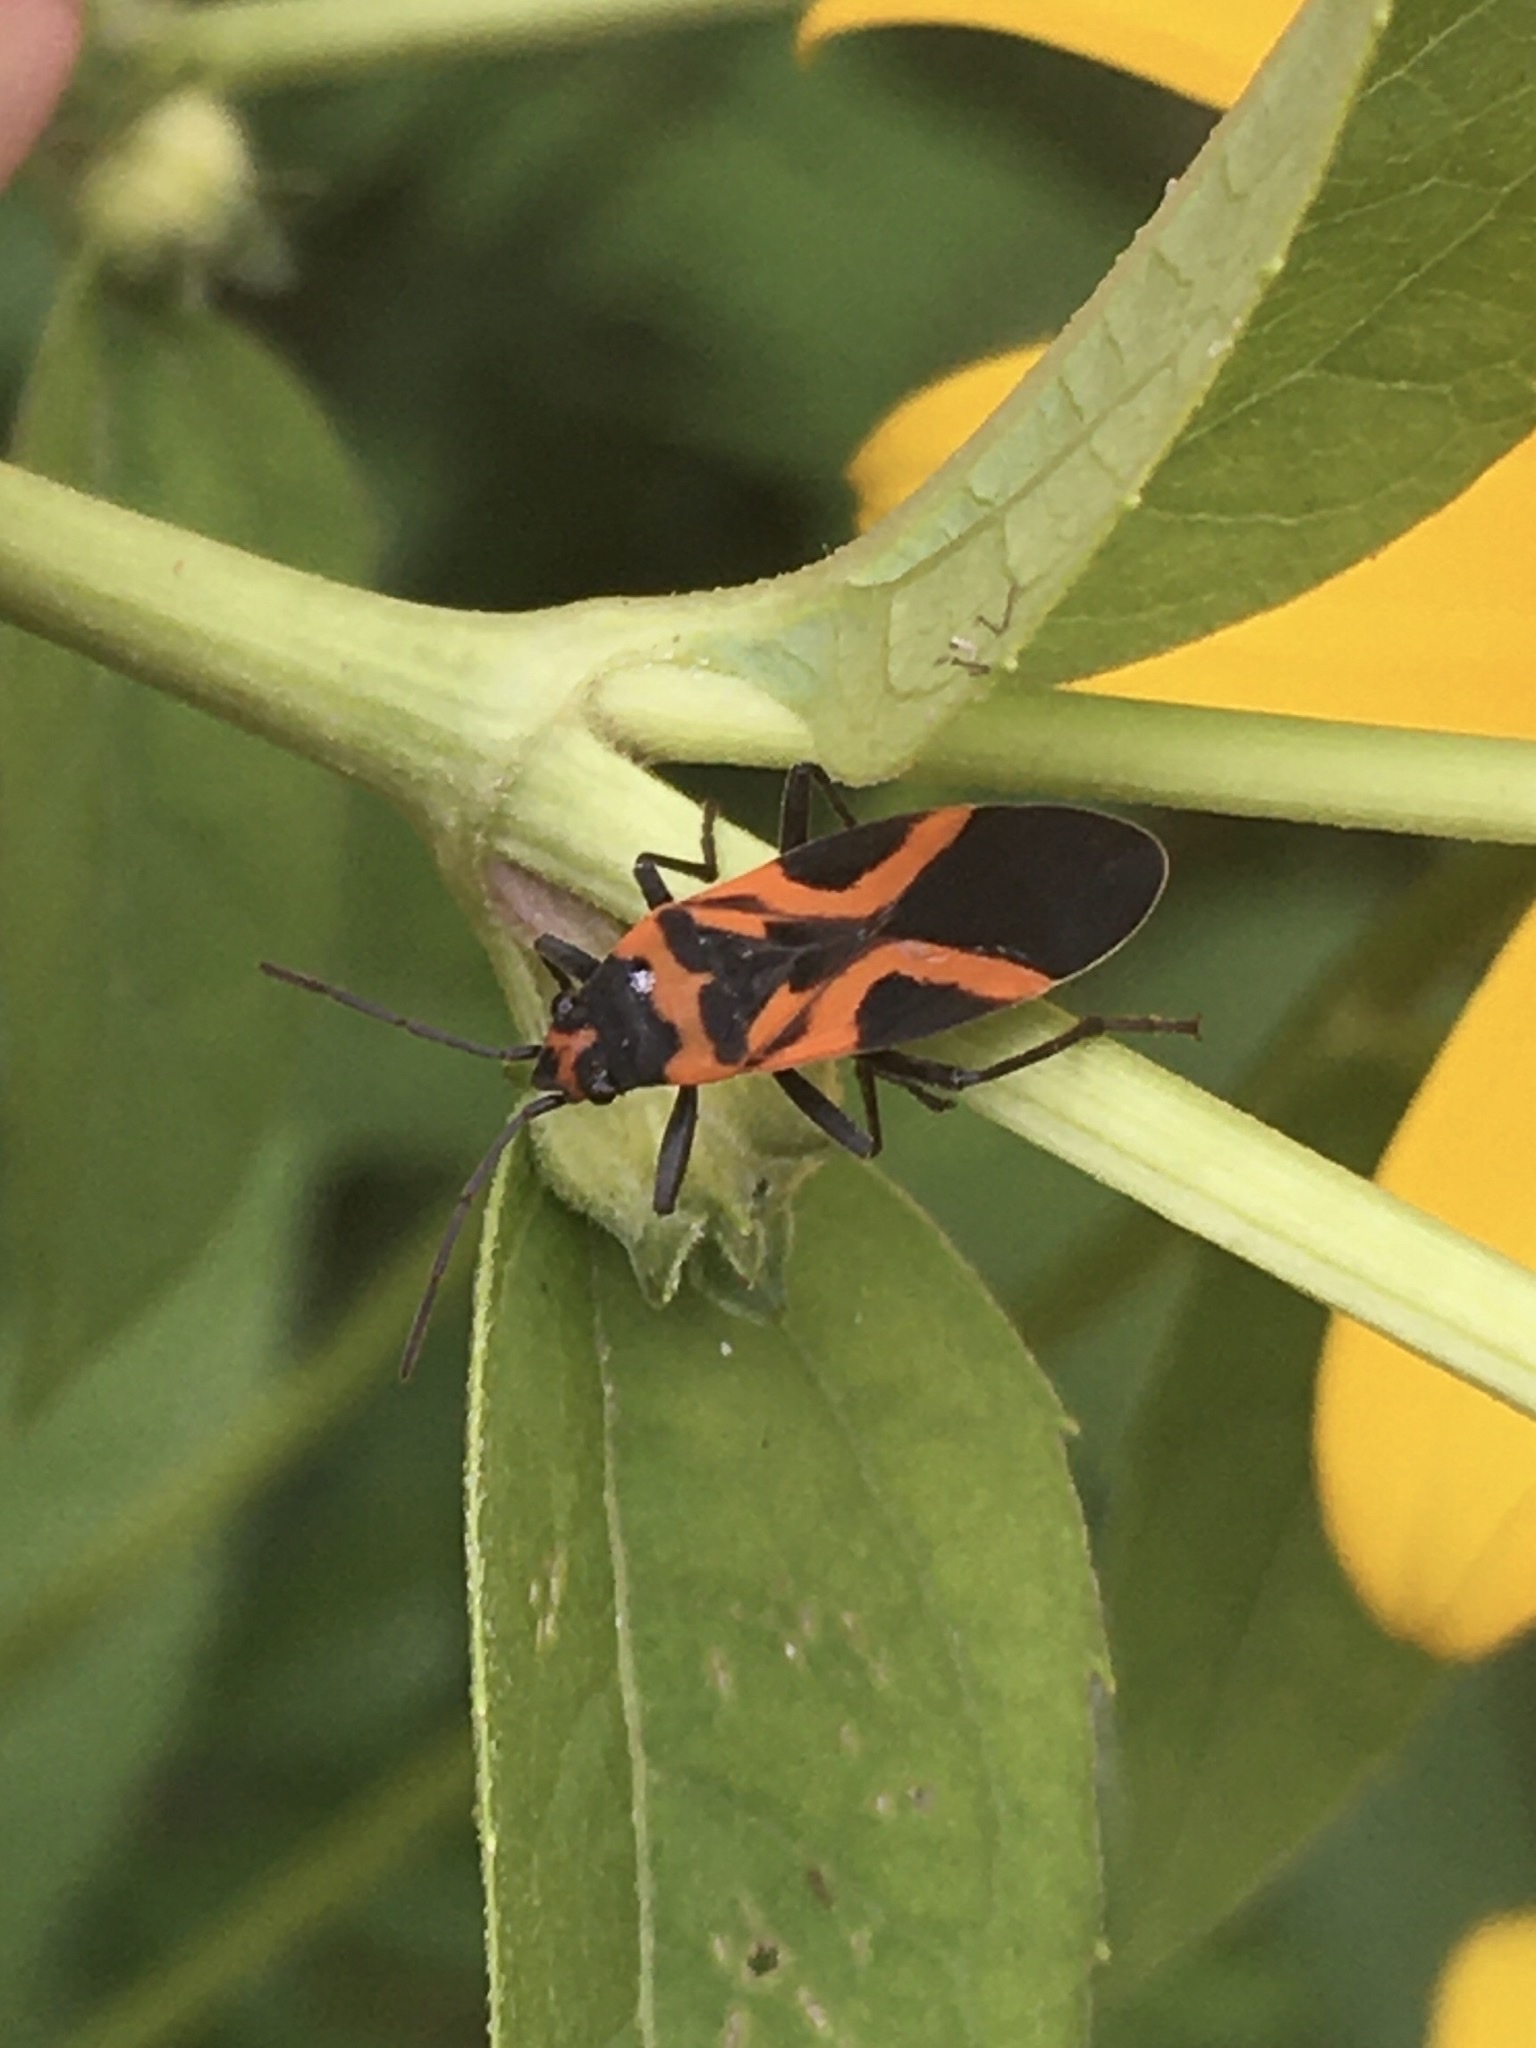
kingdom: Animalia
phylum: Arthropoda
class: Insecta
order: Hemiptera
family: Lygaeidae
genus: Lygaeus
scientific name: Lygaeus turcicus
